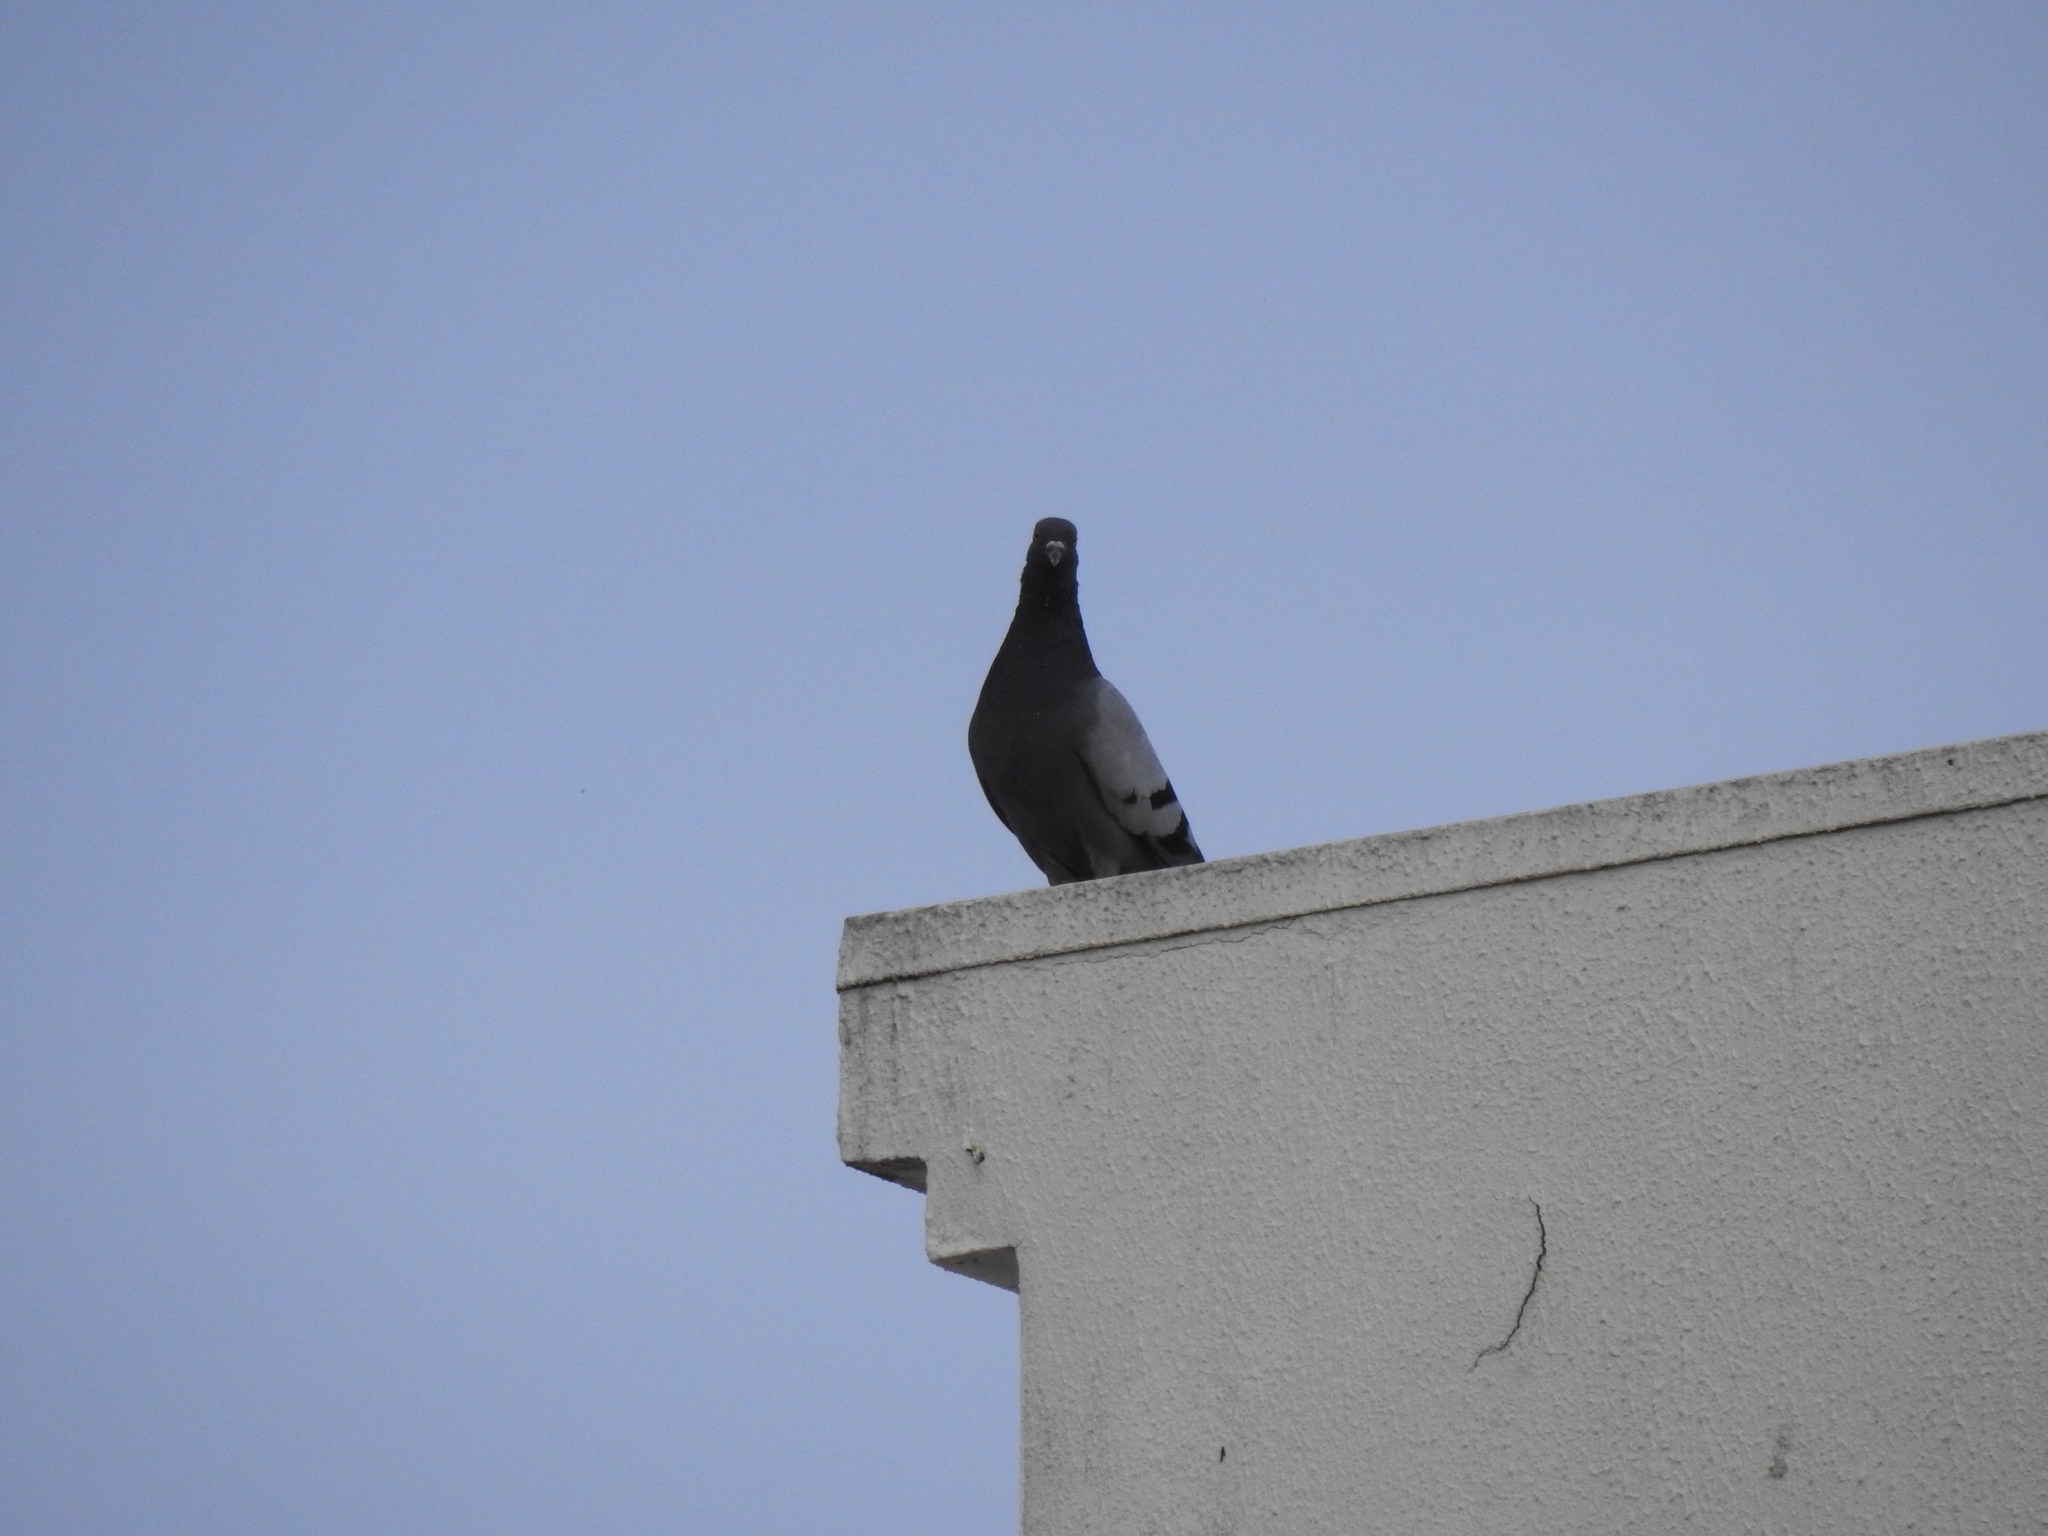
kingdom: Animalia
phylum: Chordata
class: Aves
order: Columbiformes
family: Columbidae
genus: Columba
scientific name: Columba livia
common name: Rock pigeon
